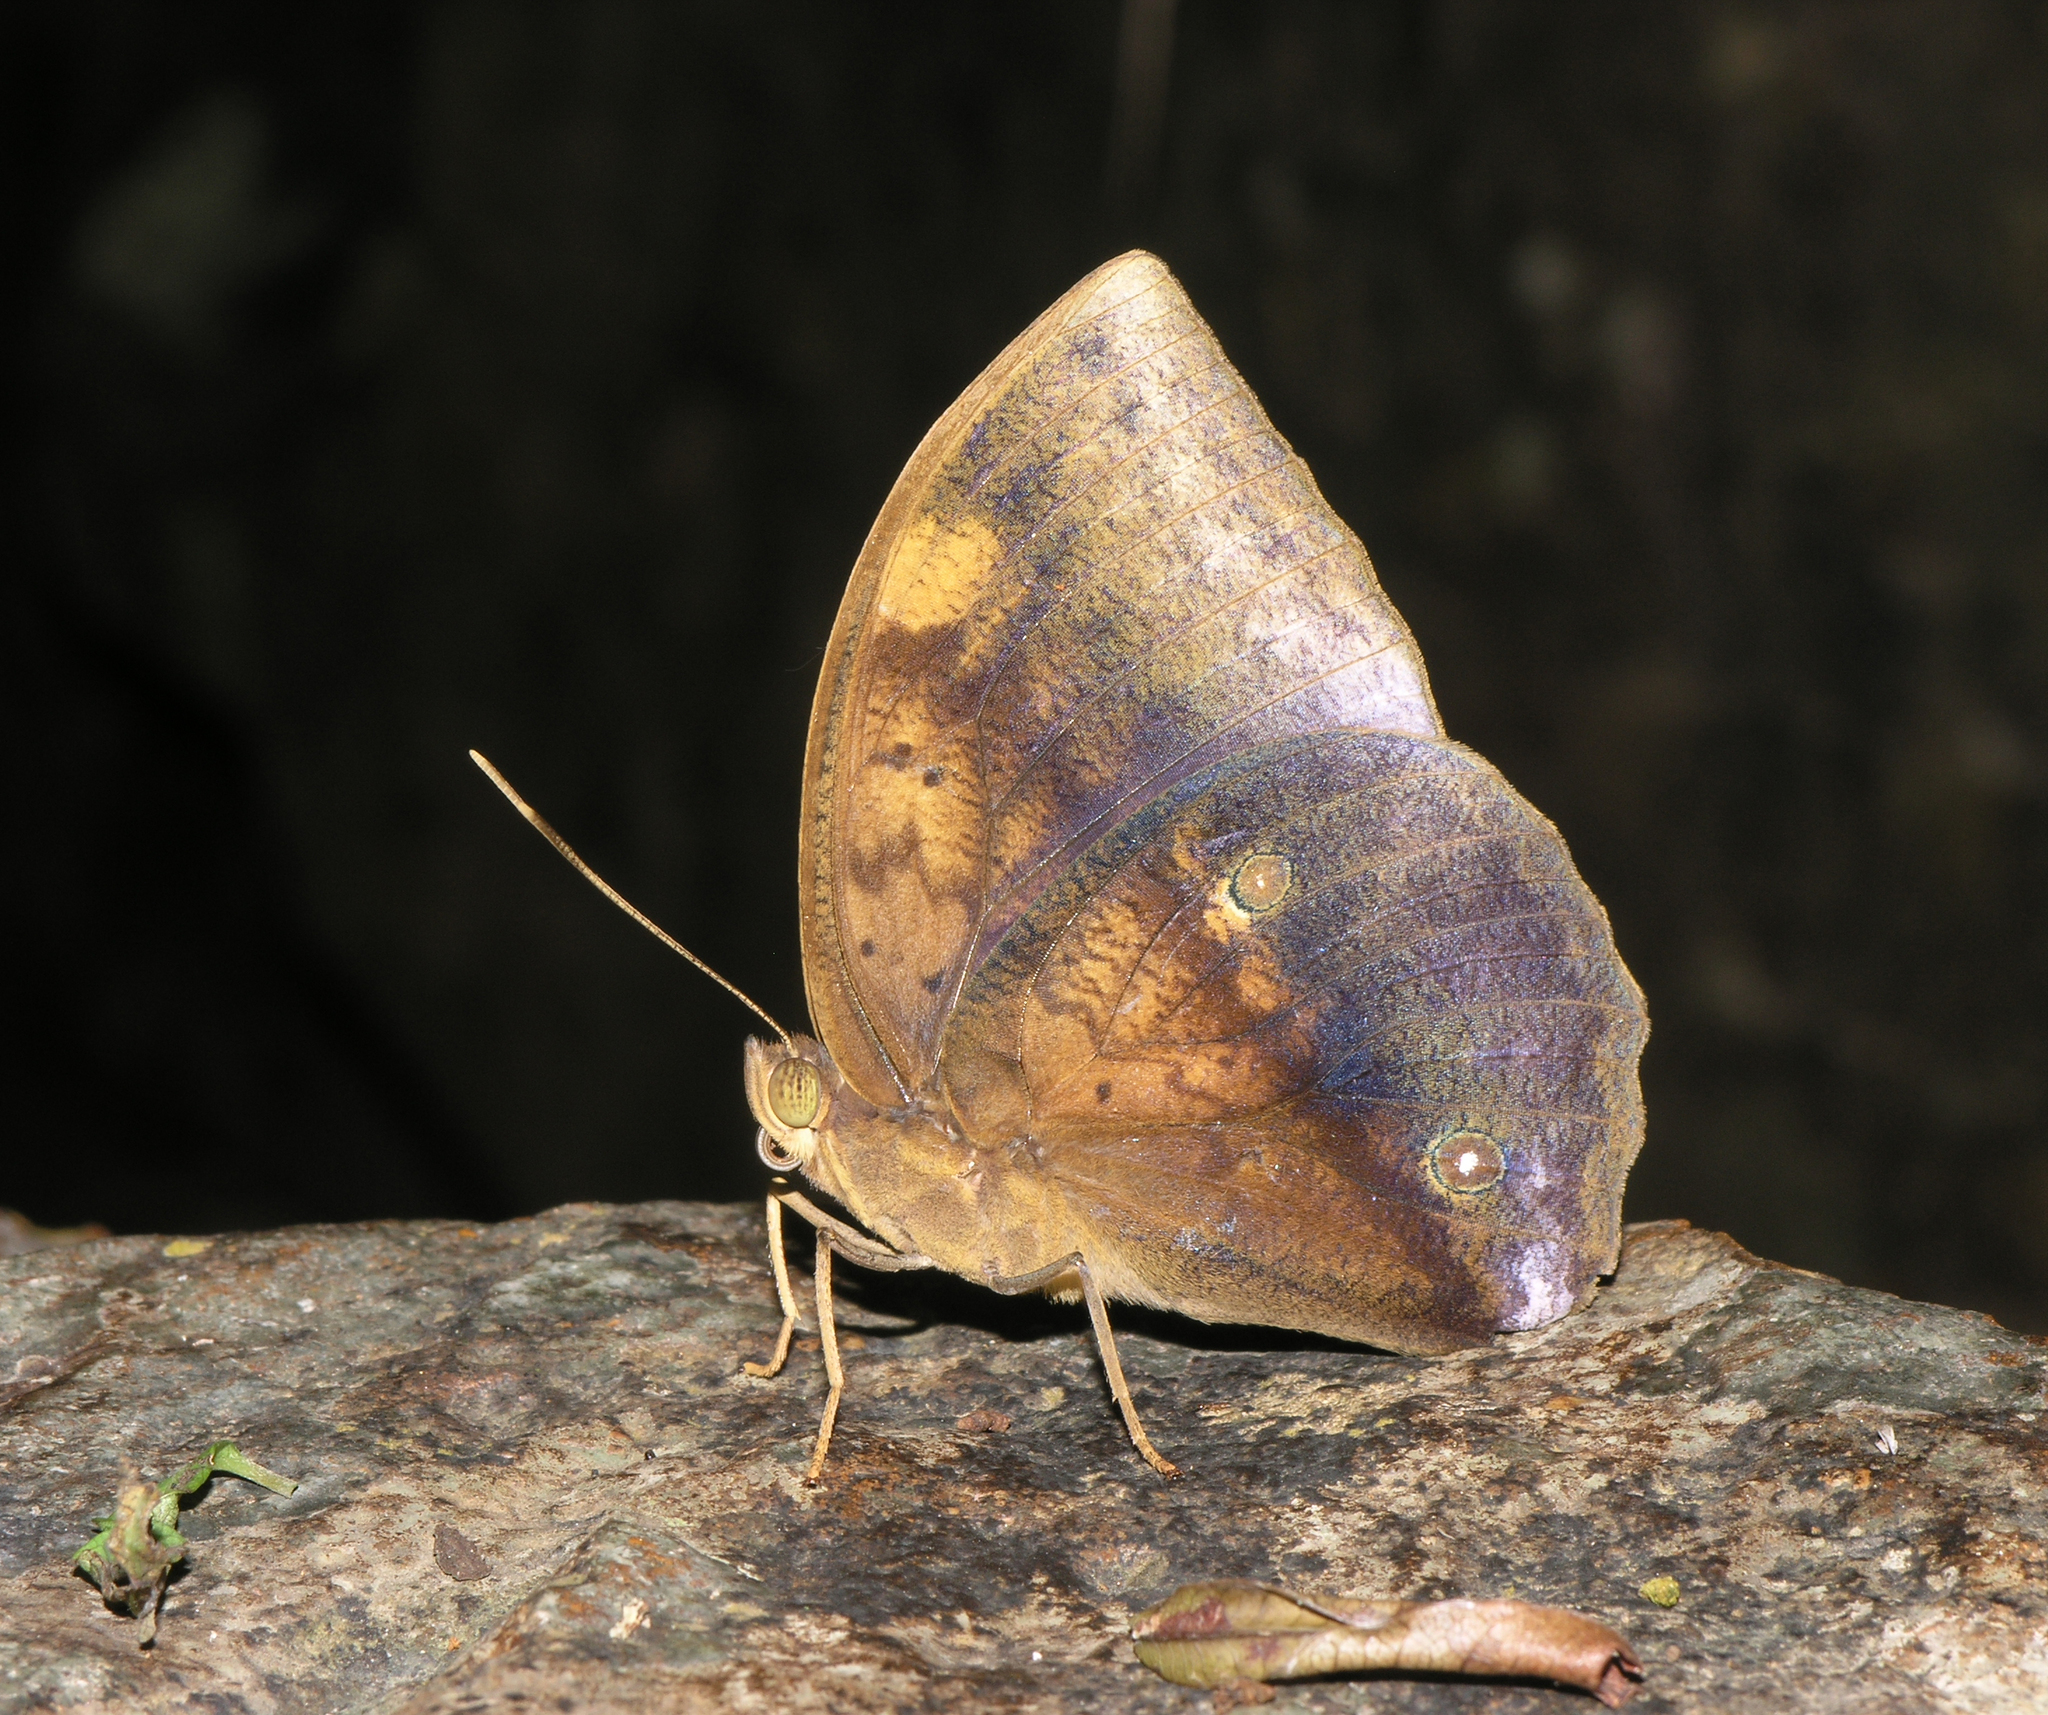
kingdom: Animalia
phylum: Arthropoda
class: Insecta
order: Lepidoptera
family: Nymphalidae
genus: Discophora
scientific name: Discophora timora
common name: Great duffer
